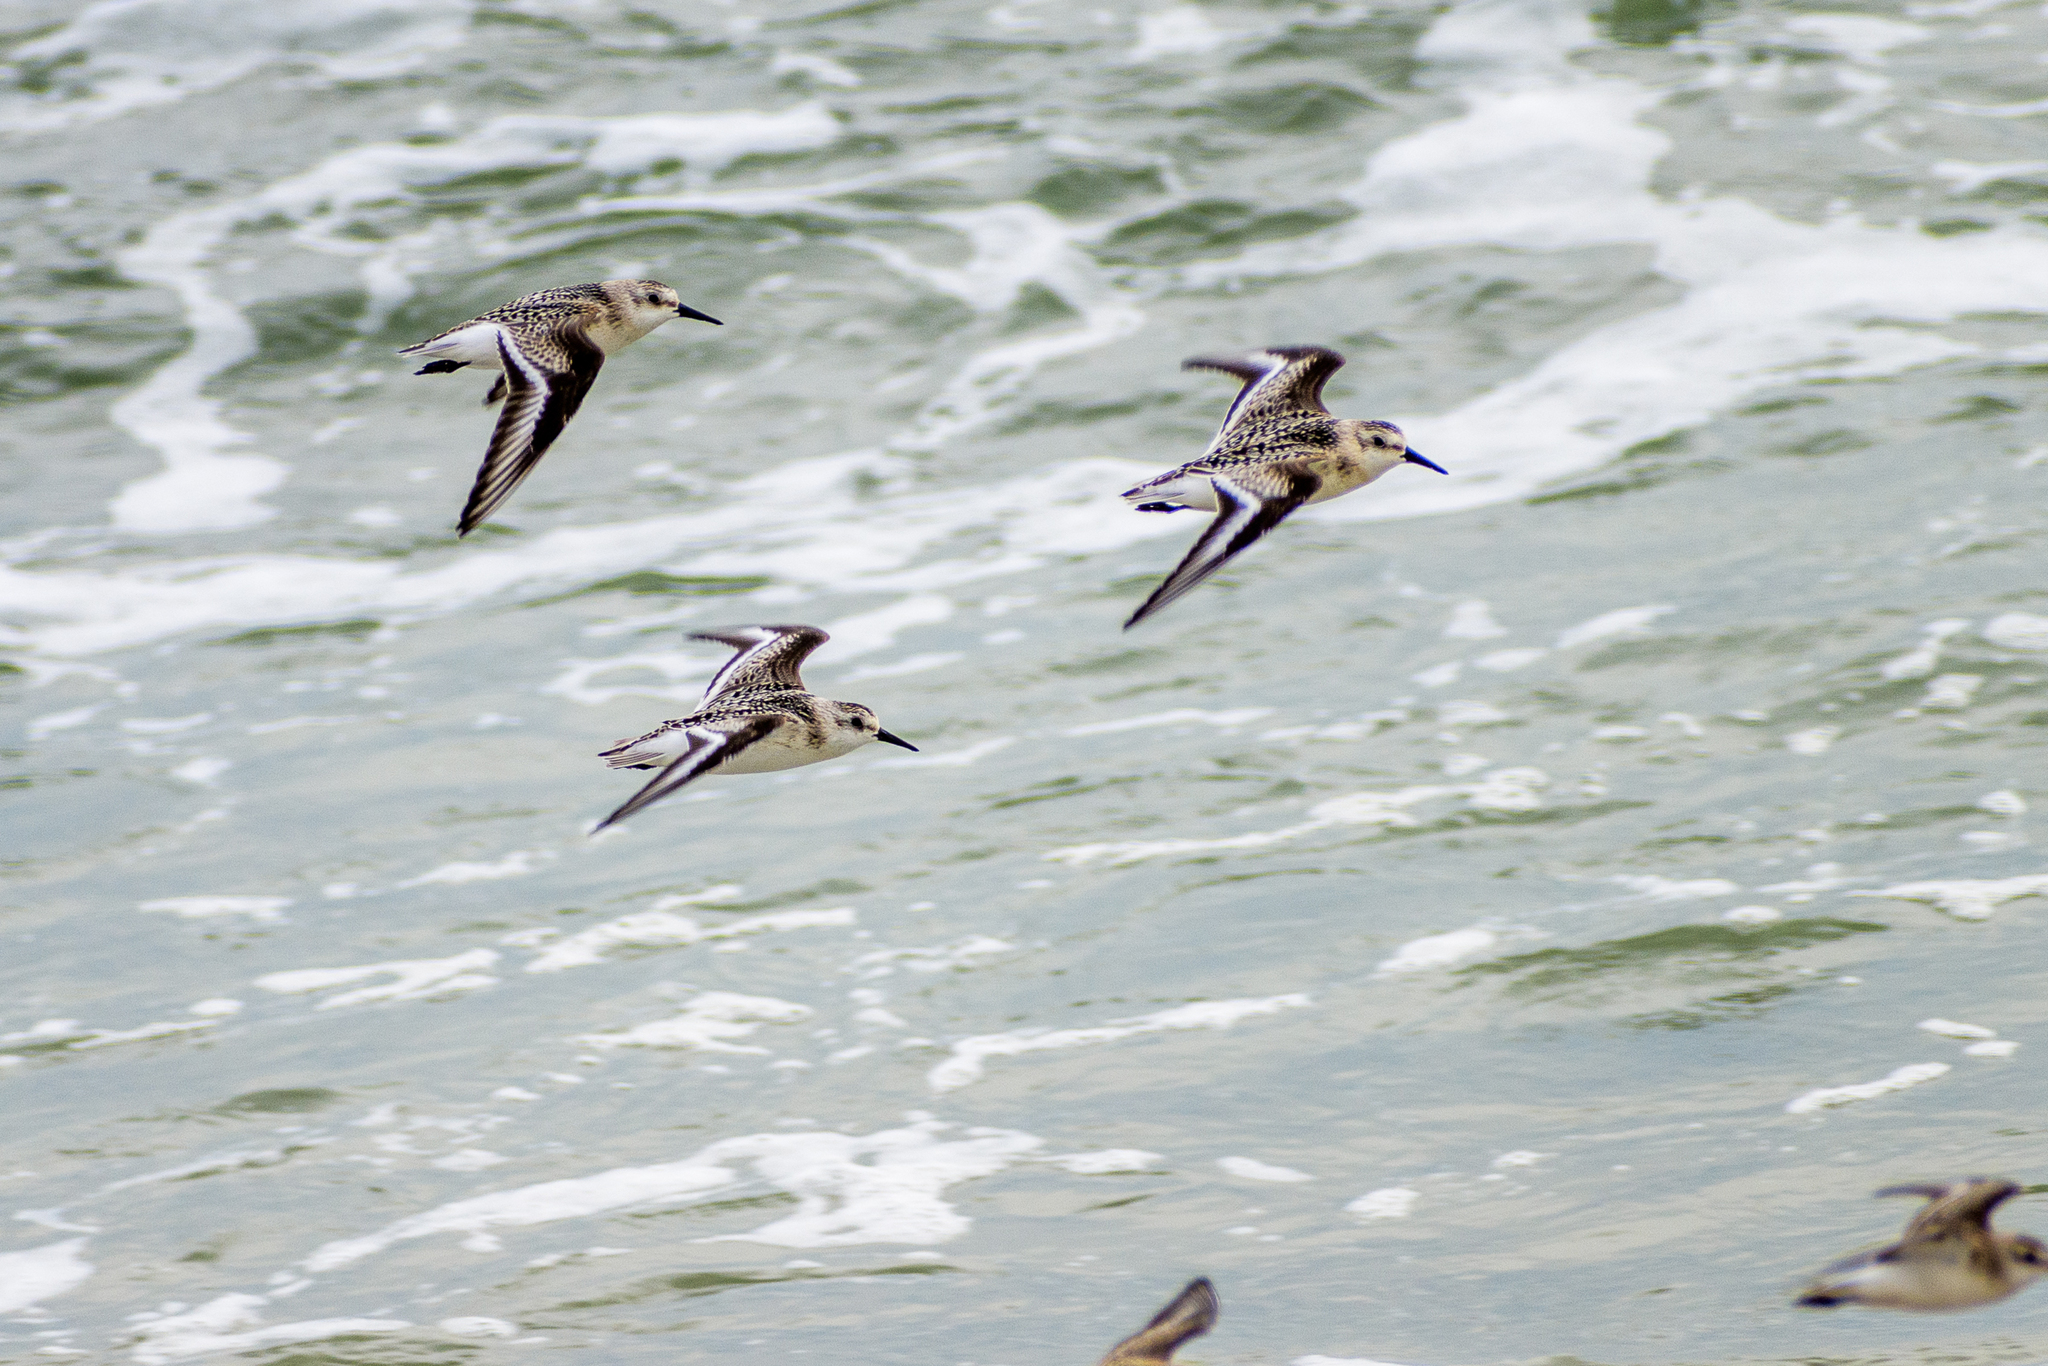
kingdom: Animalia
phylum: Chordata
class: Aves
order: Charadriiformes
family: Scolopacidae
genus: Calidris
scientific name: Calidris alba
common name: Sanderling
